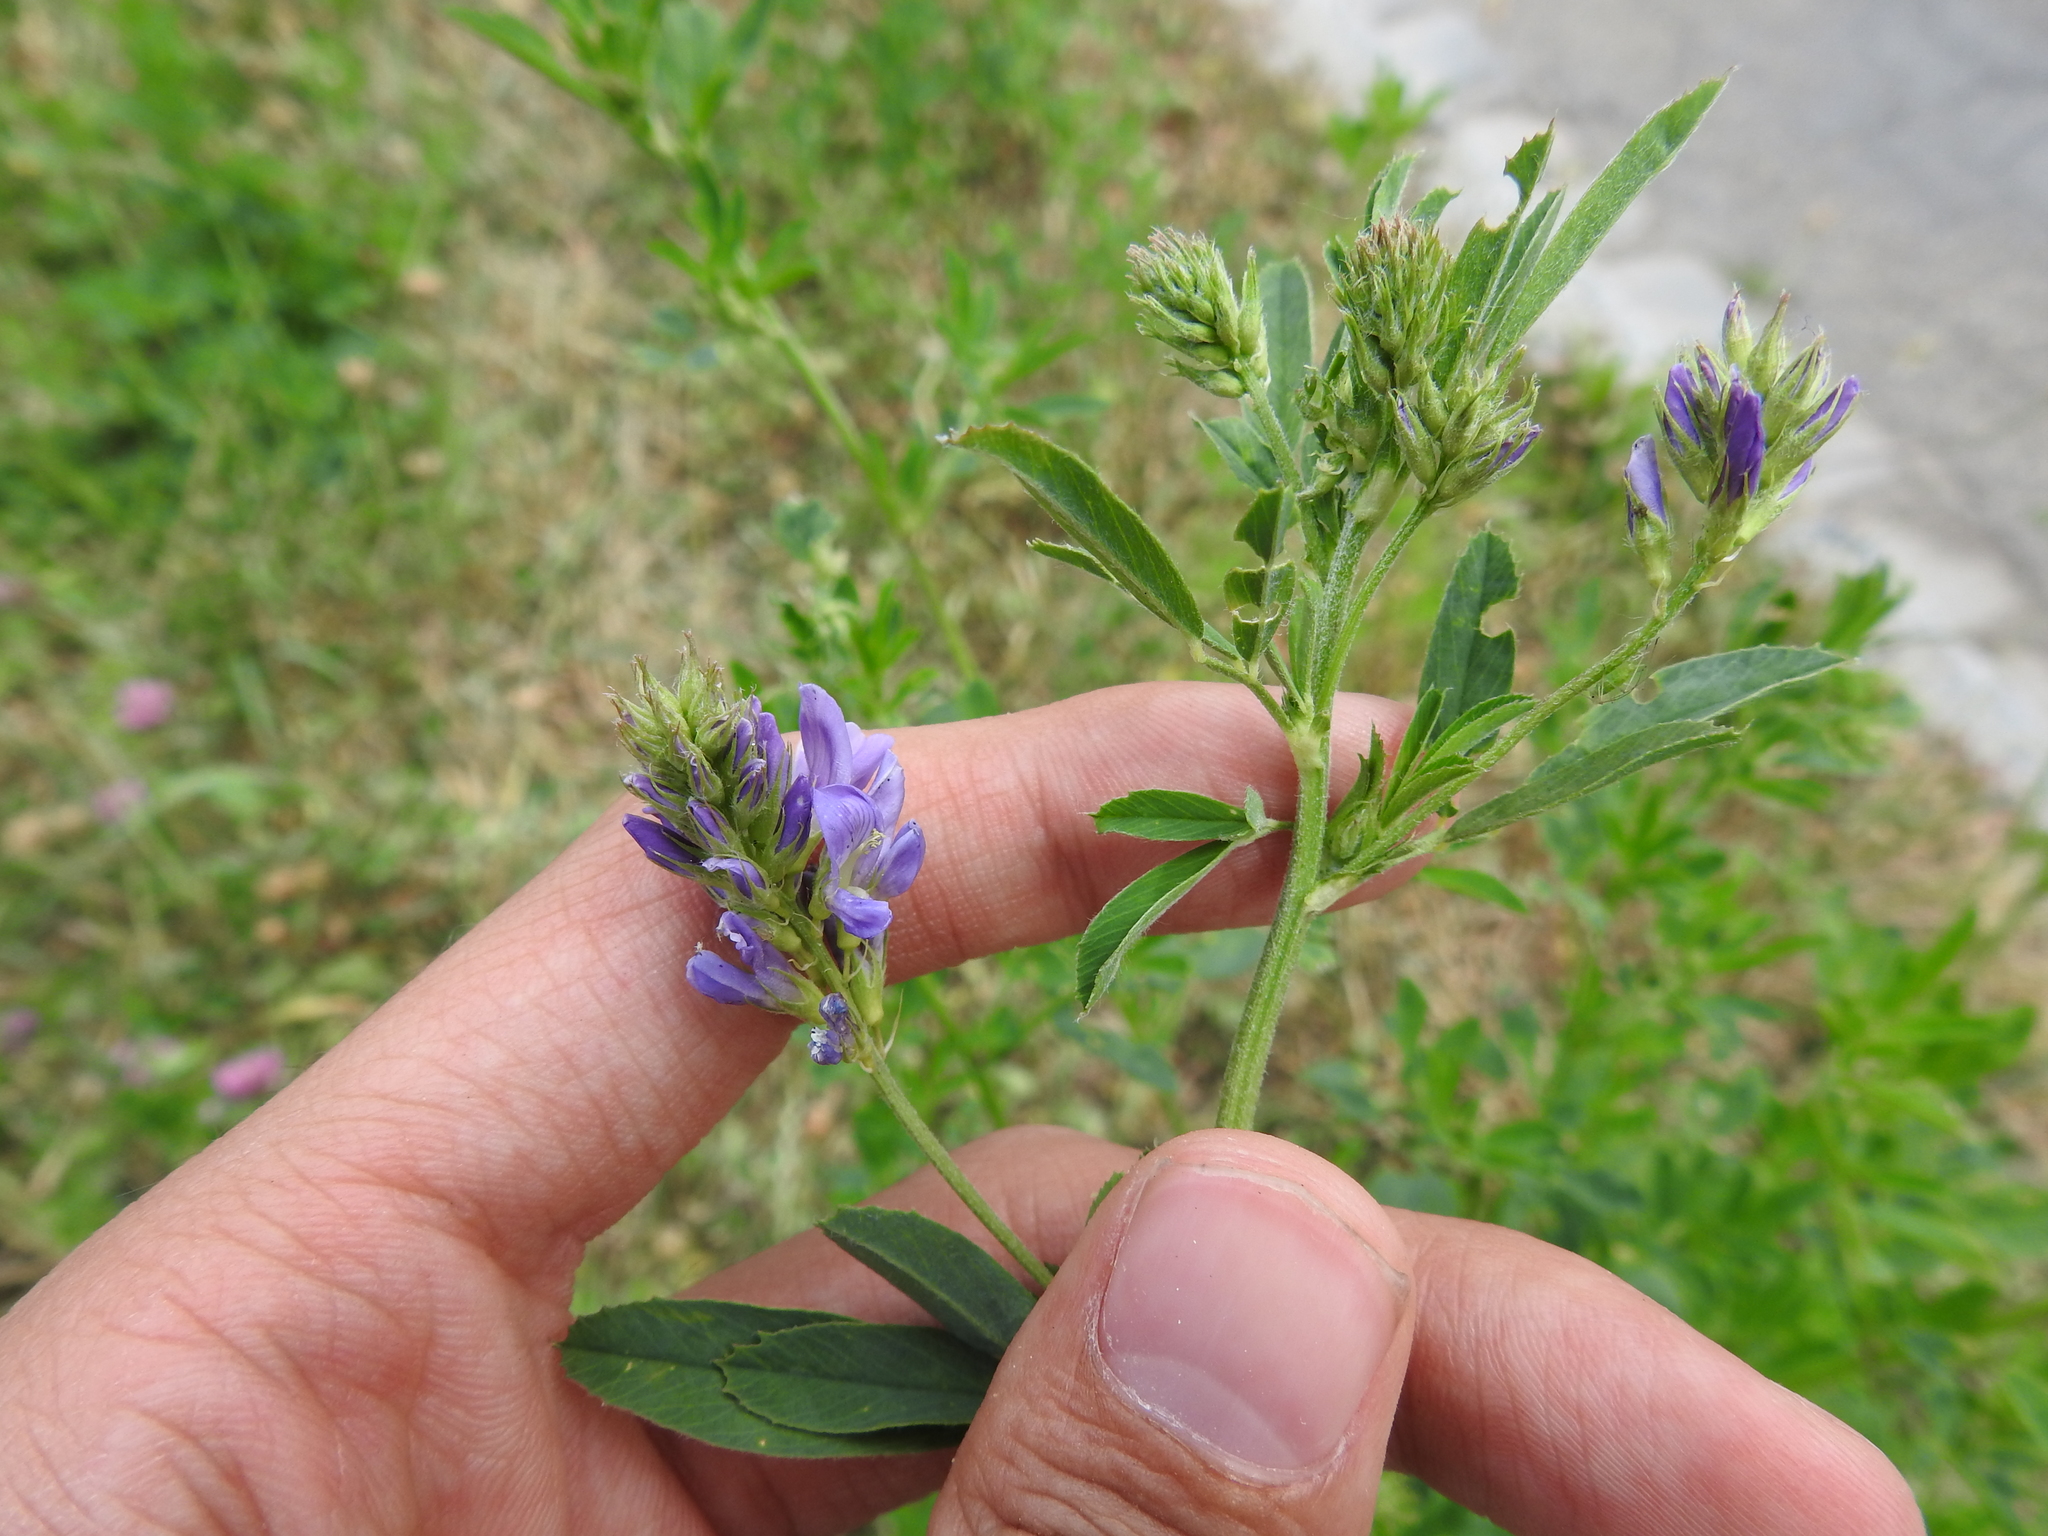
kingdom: Plantae
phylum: Tracheophyta
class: Magnoliopsida
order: Fabales
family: Fabaceae
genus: Medicago
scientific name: Medicago sativa
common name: Alfalfa
